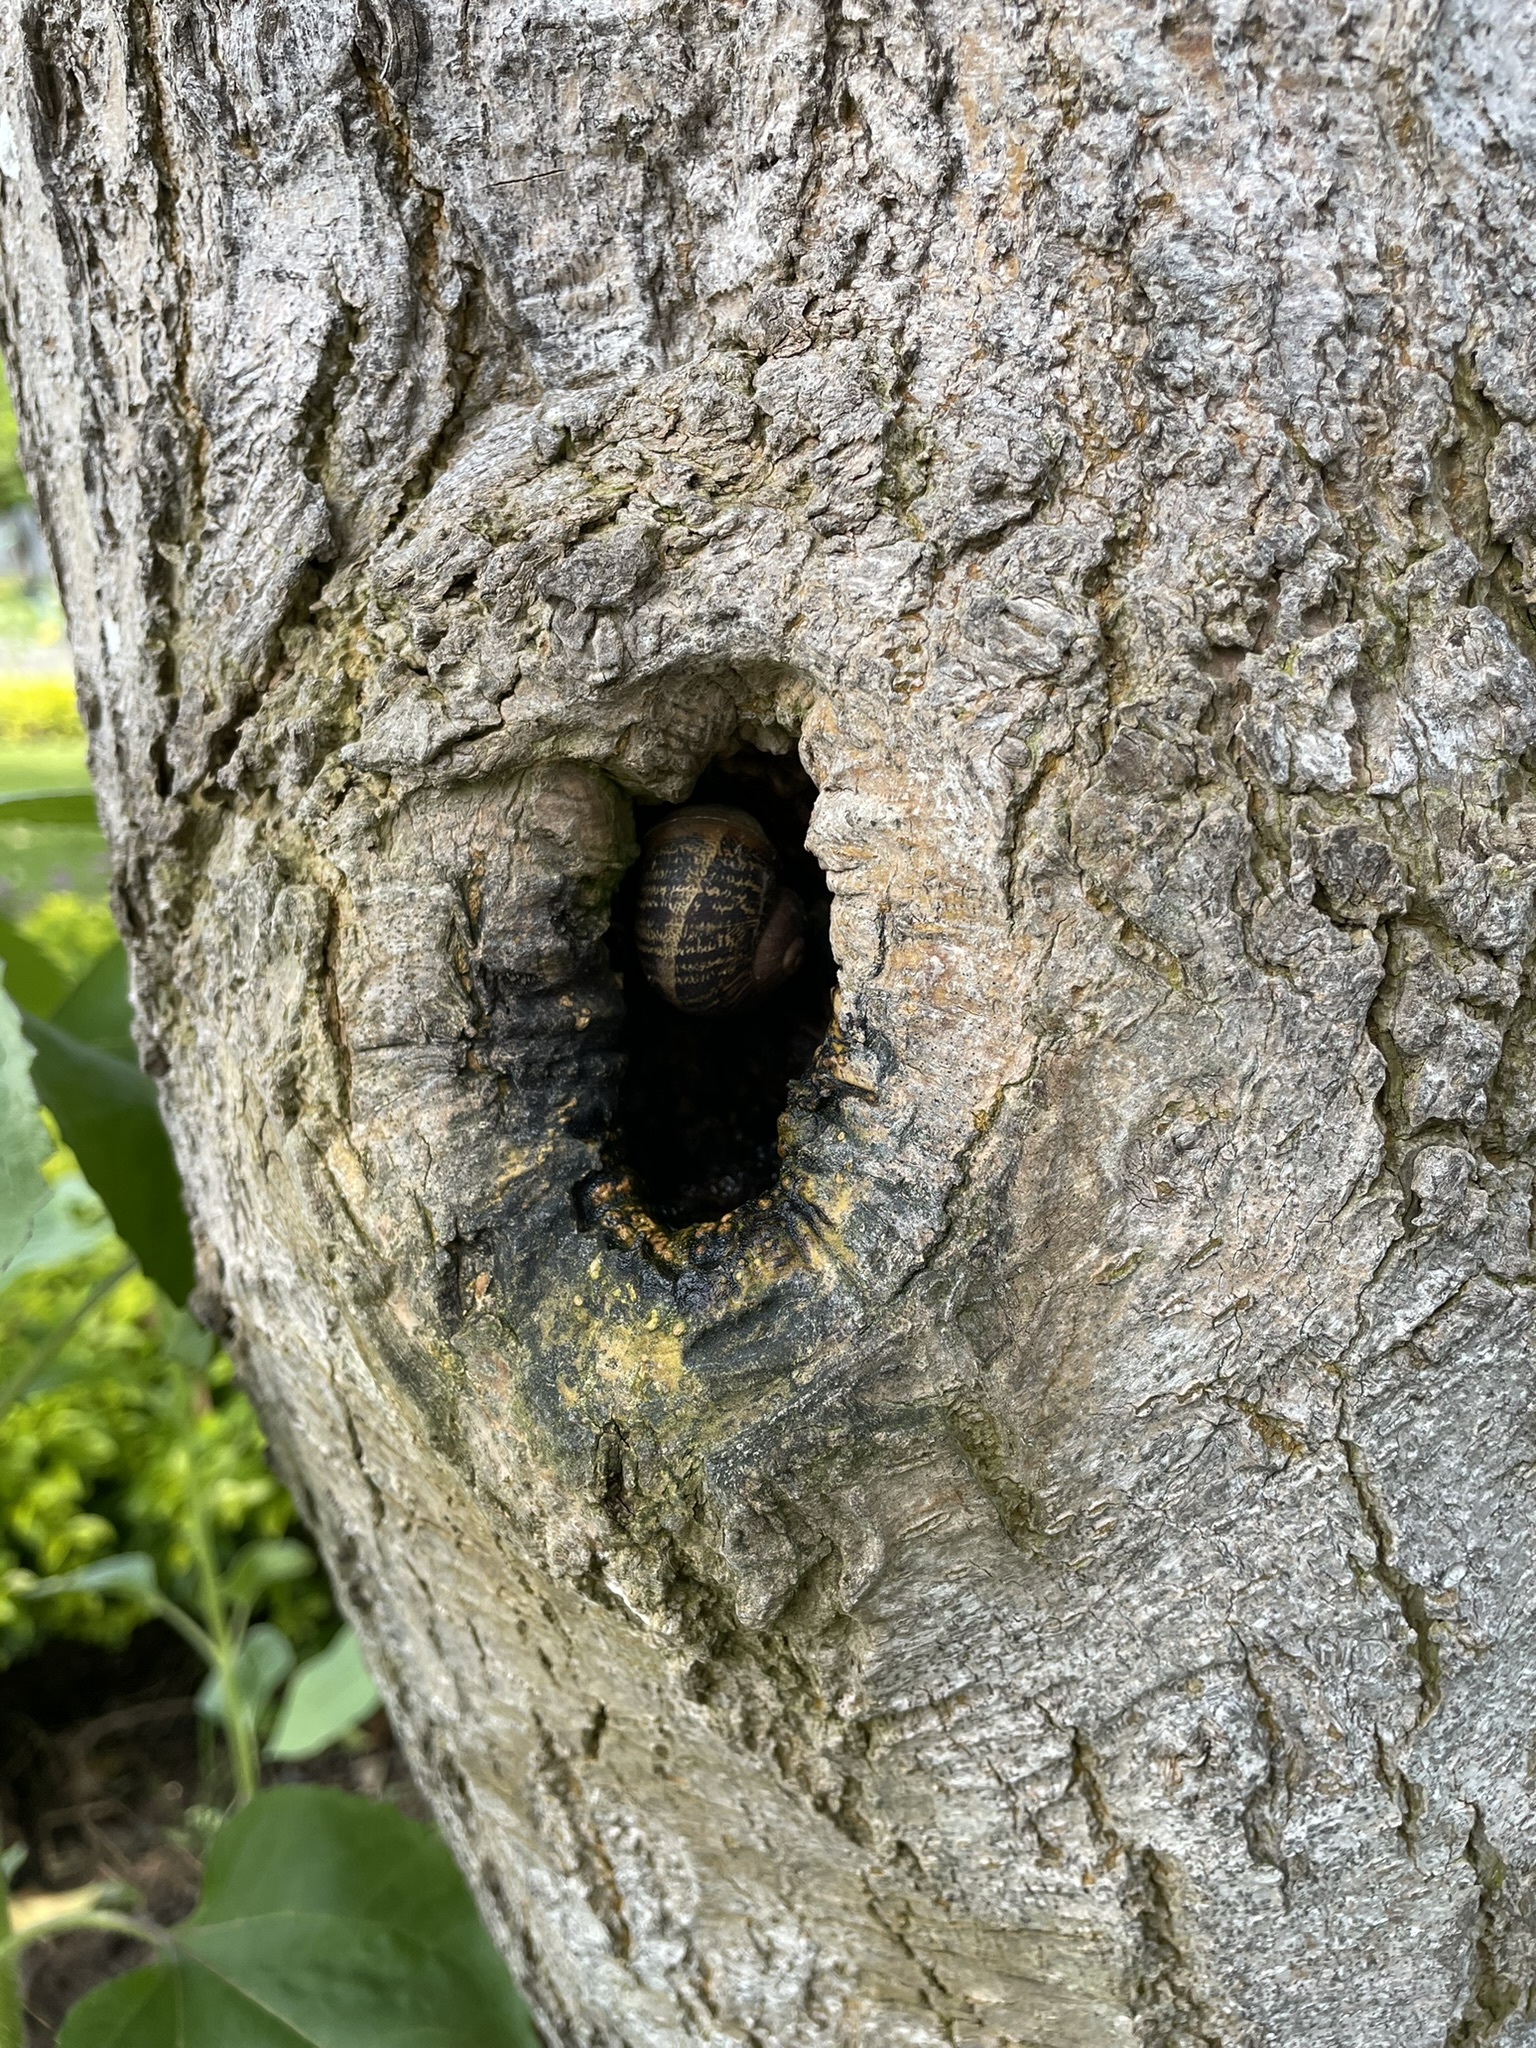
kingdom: Animalia
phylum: Mollusca
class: Gastropoda
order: Stylommatophora
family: Helicidae
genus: Cornu
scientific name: Cornu aspersum
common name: Brown garden snail
